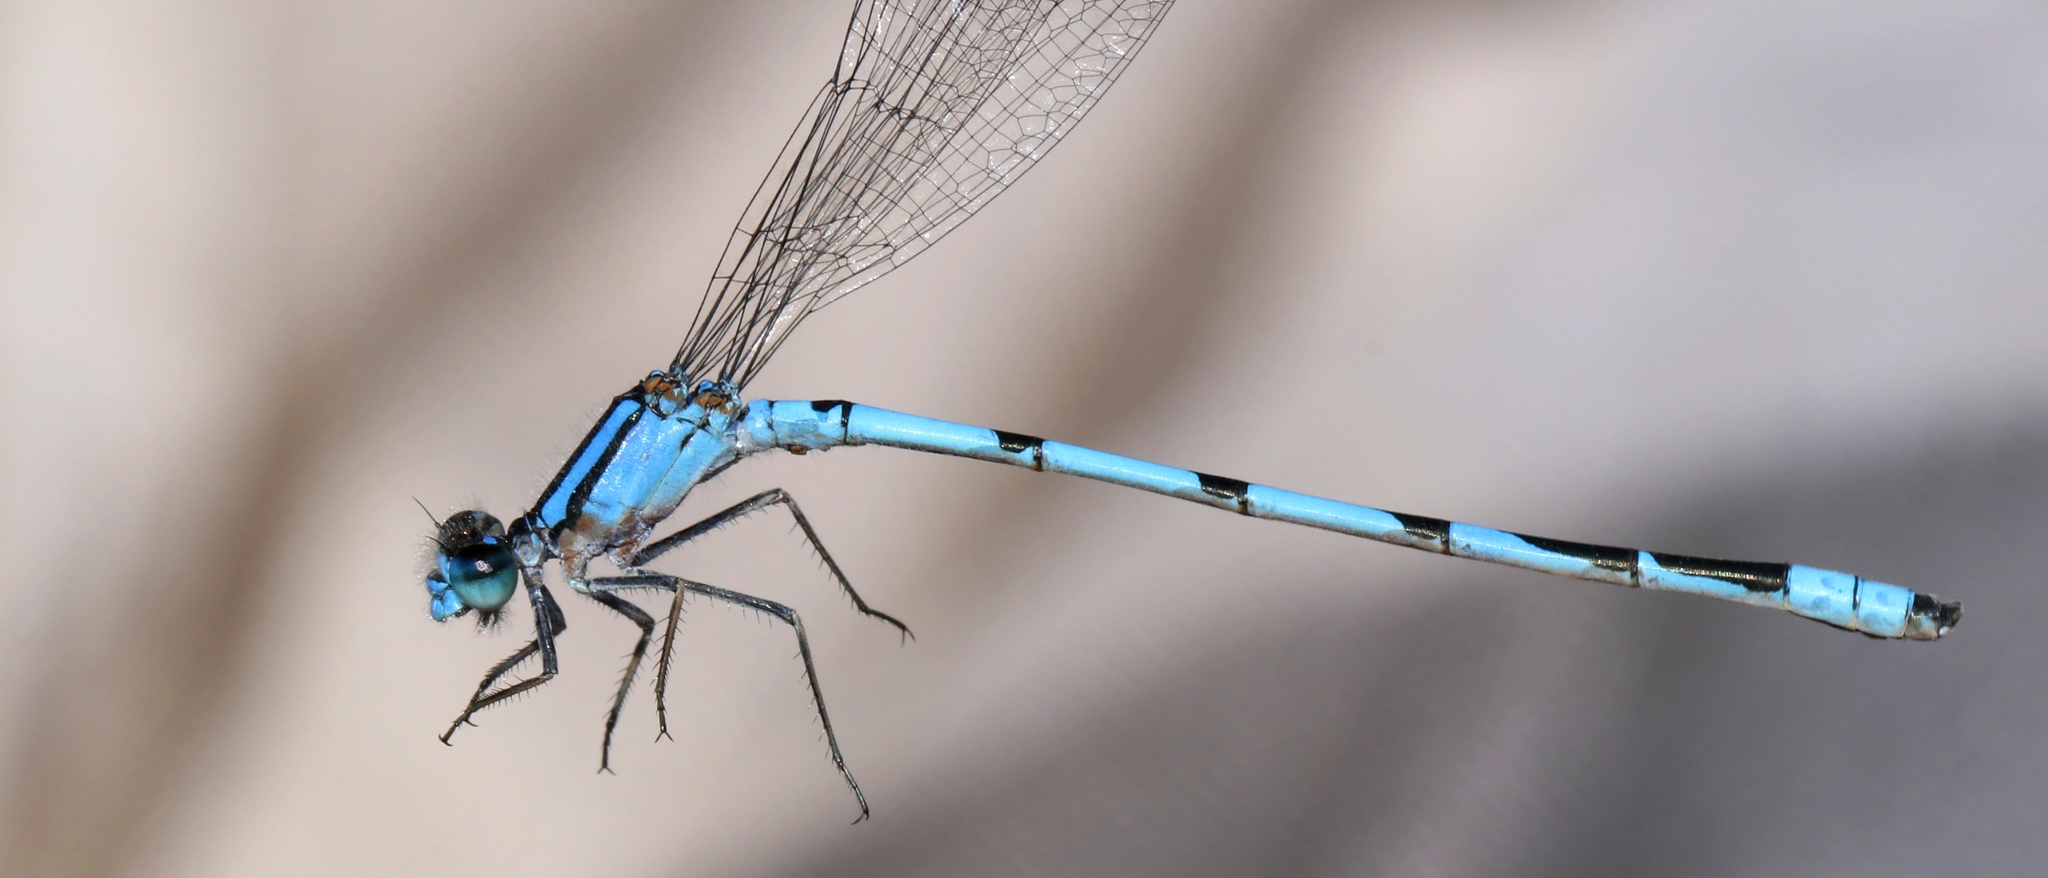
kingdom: Animalia
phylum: Arthropoda
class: Insecta
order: Odonata
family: Coenagrionidae
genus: Enallagma
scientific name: Enallagma civile
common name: Damselfly
